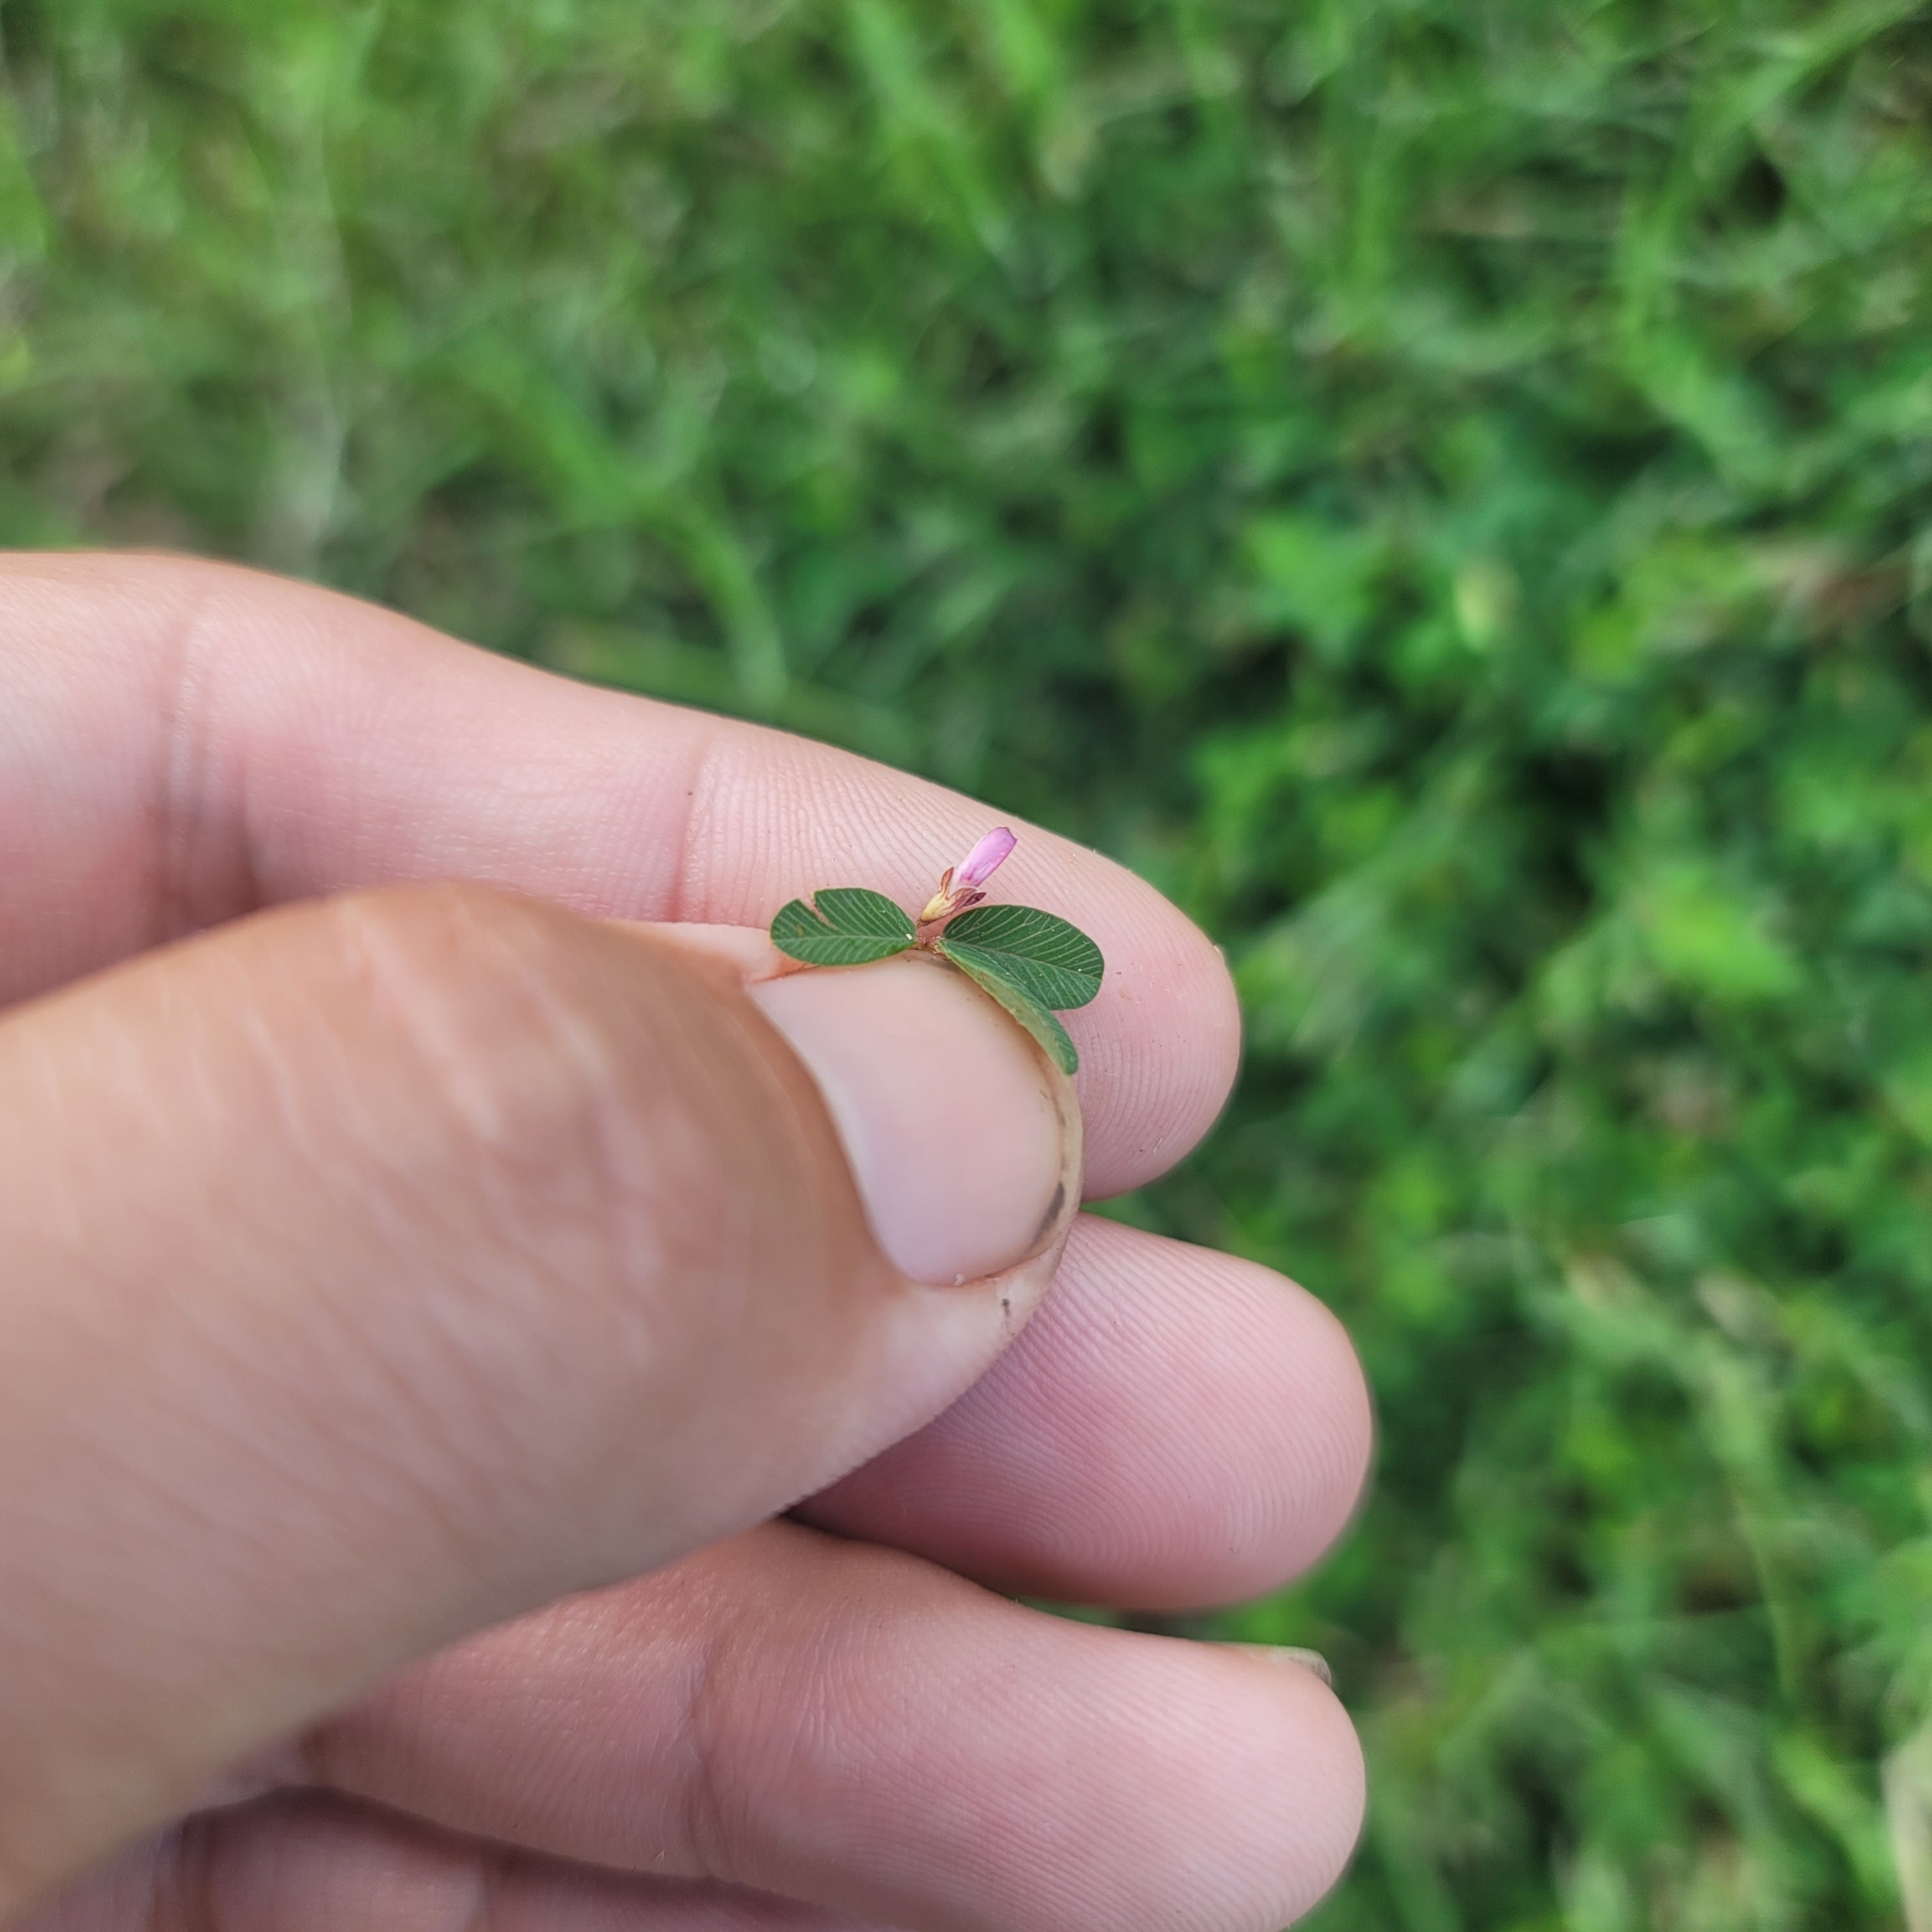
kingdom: Plantae
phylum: Tracheophyta
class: Magnoliopsida
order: Fabales
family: Fabaceae
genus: Kummerowia
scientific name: Kummerowia striata
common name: Japanese clover
